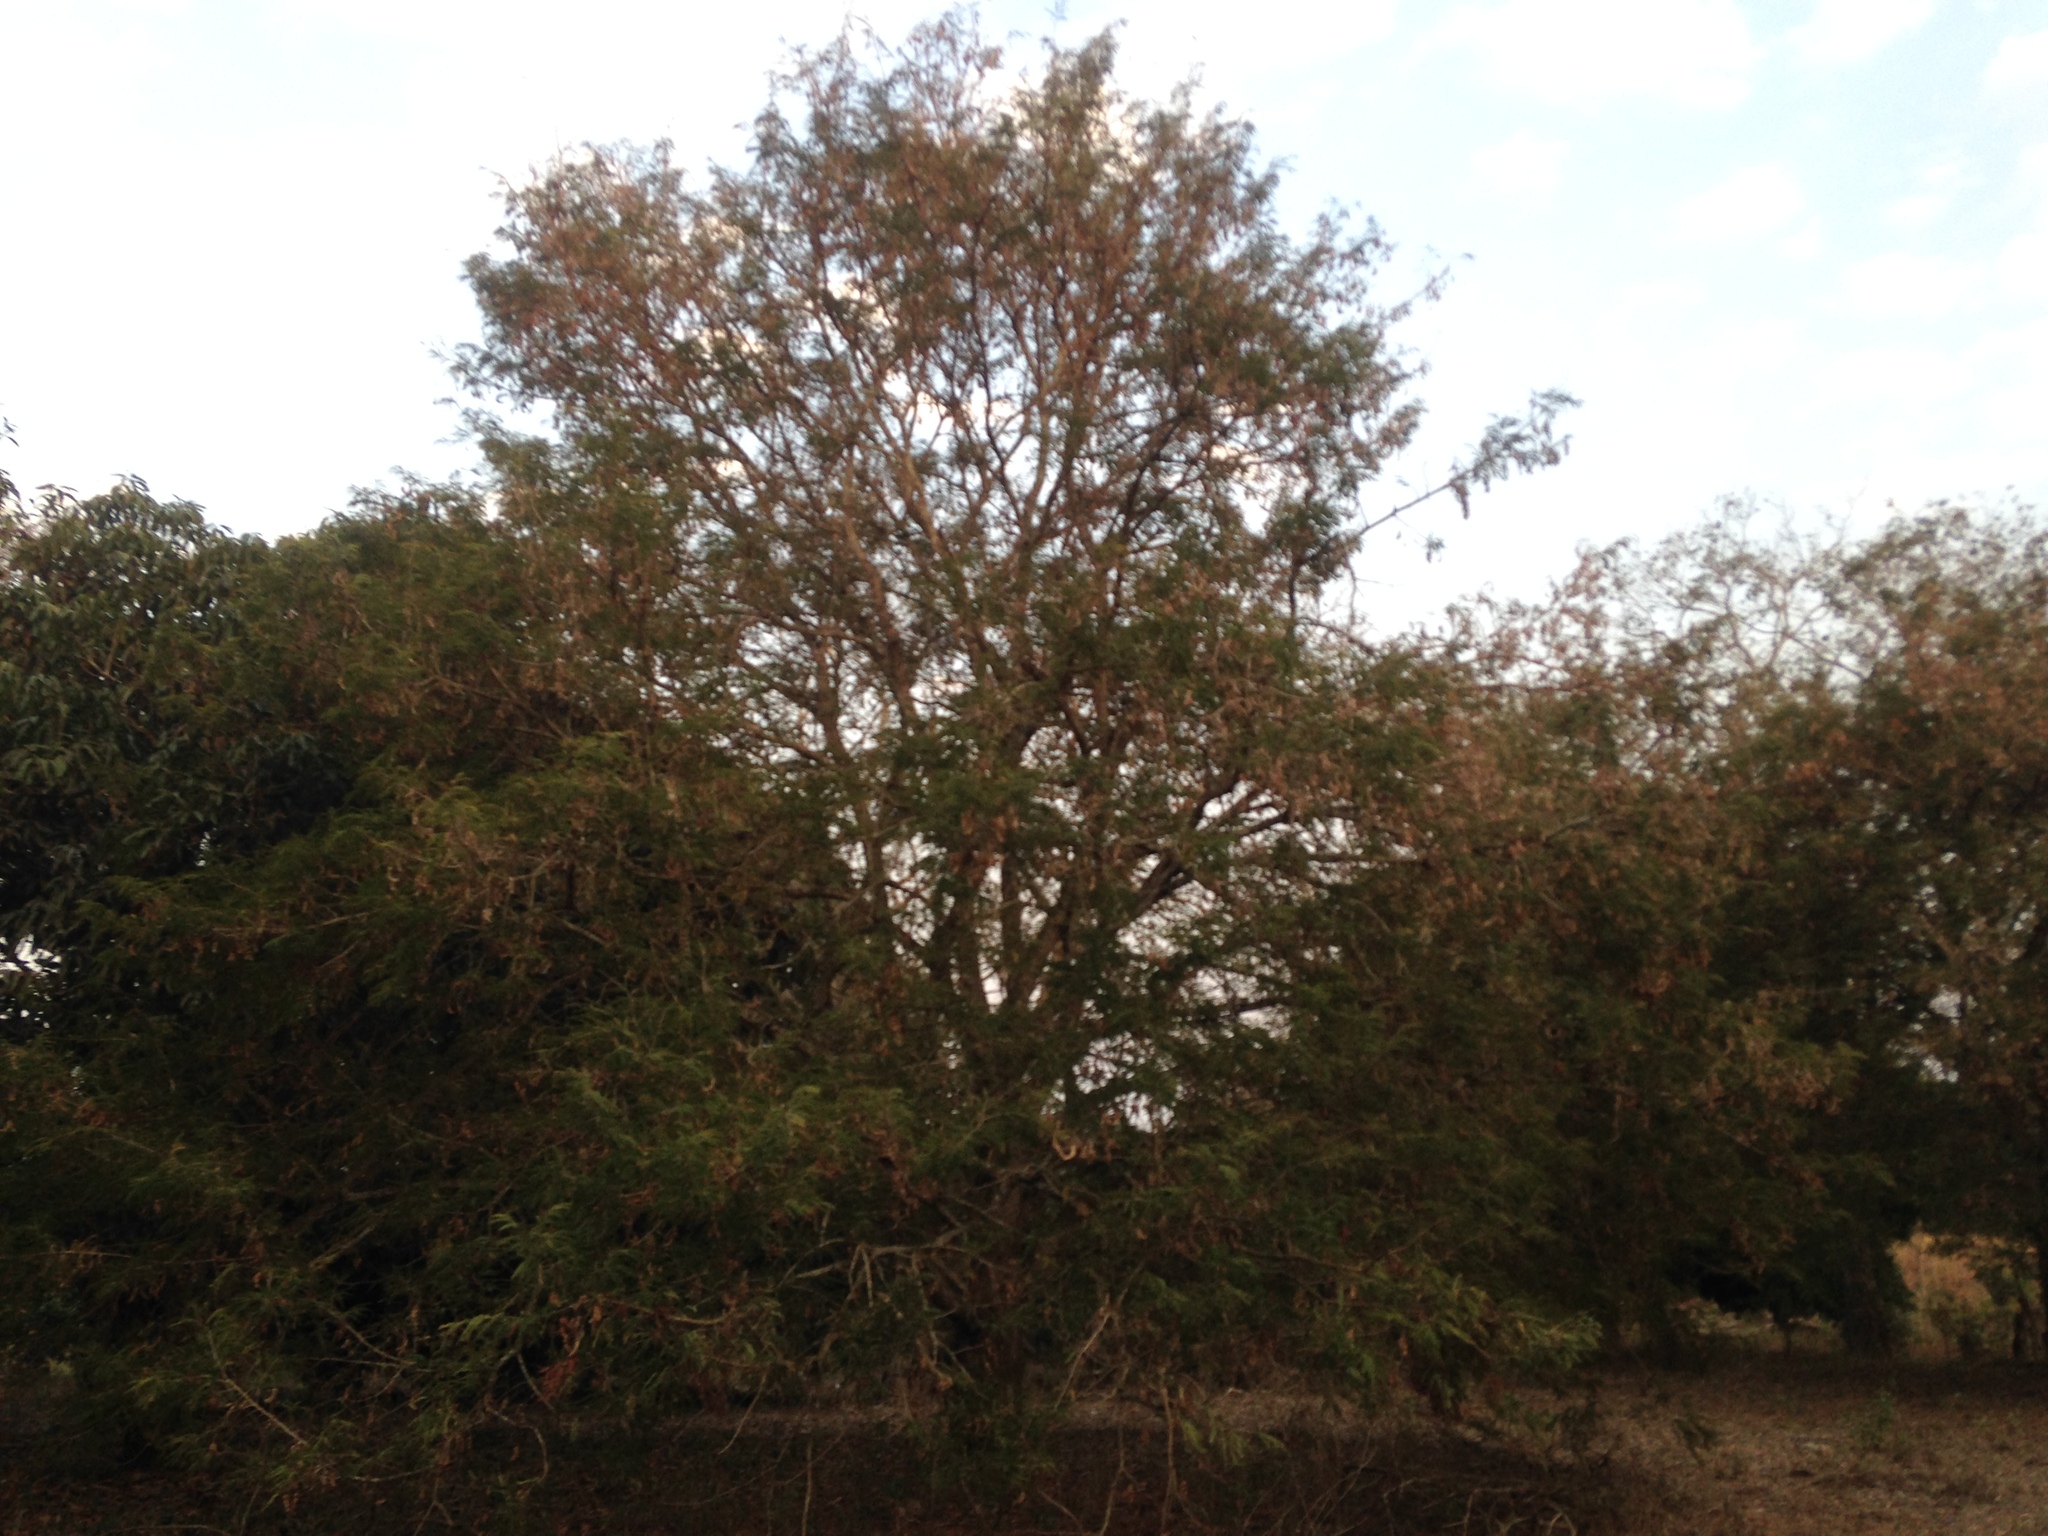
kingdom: Plantae
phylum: Tracheophyta
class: Magnoliopsida
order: Fabales
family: Fabaceae
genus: Tamarindus
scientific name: Tamarindus indica
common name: Tamarind
